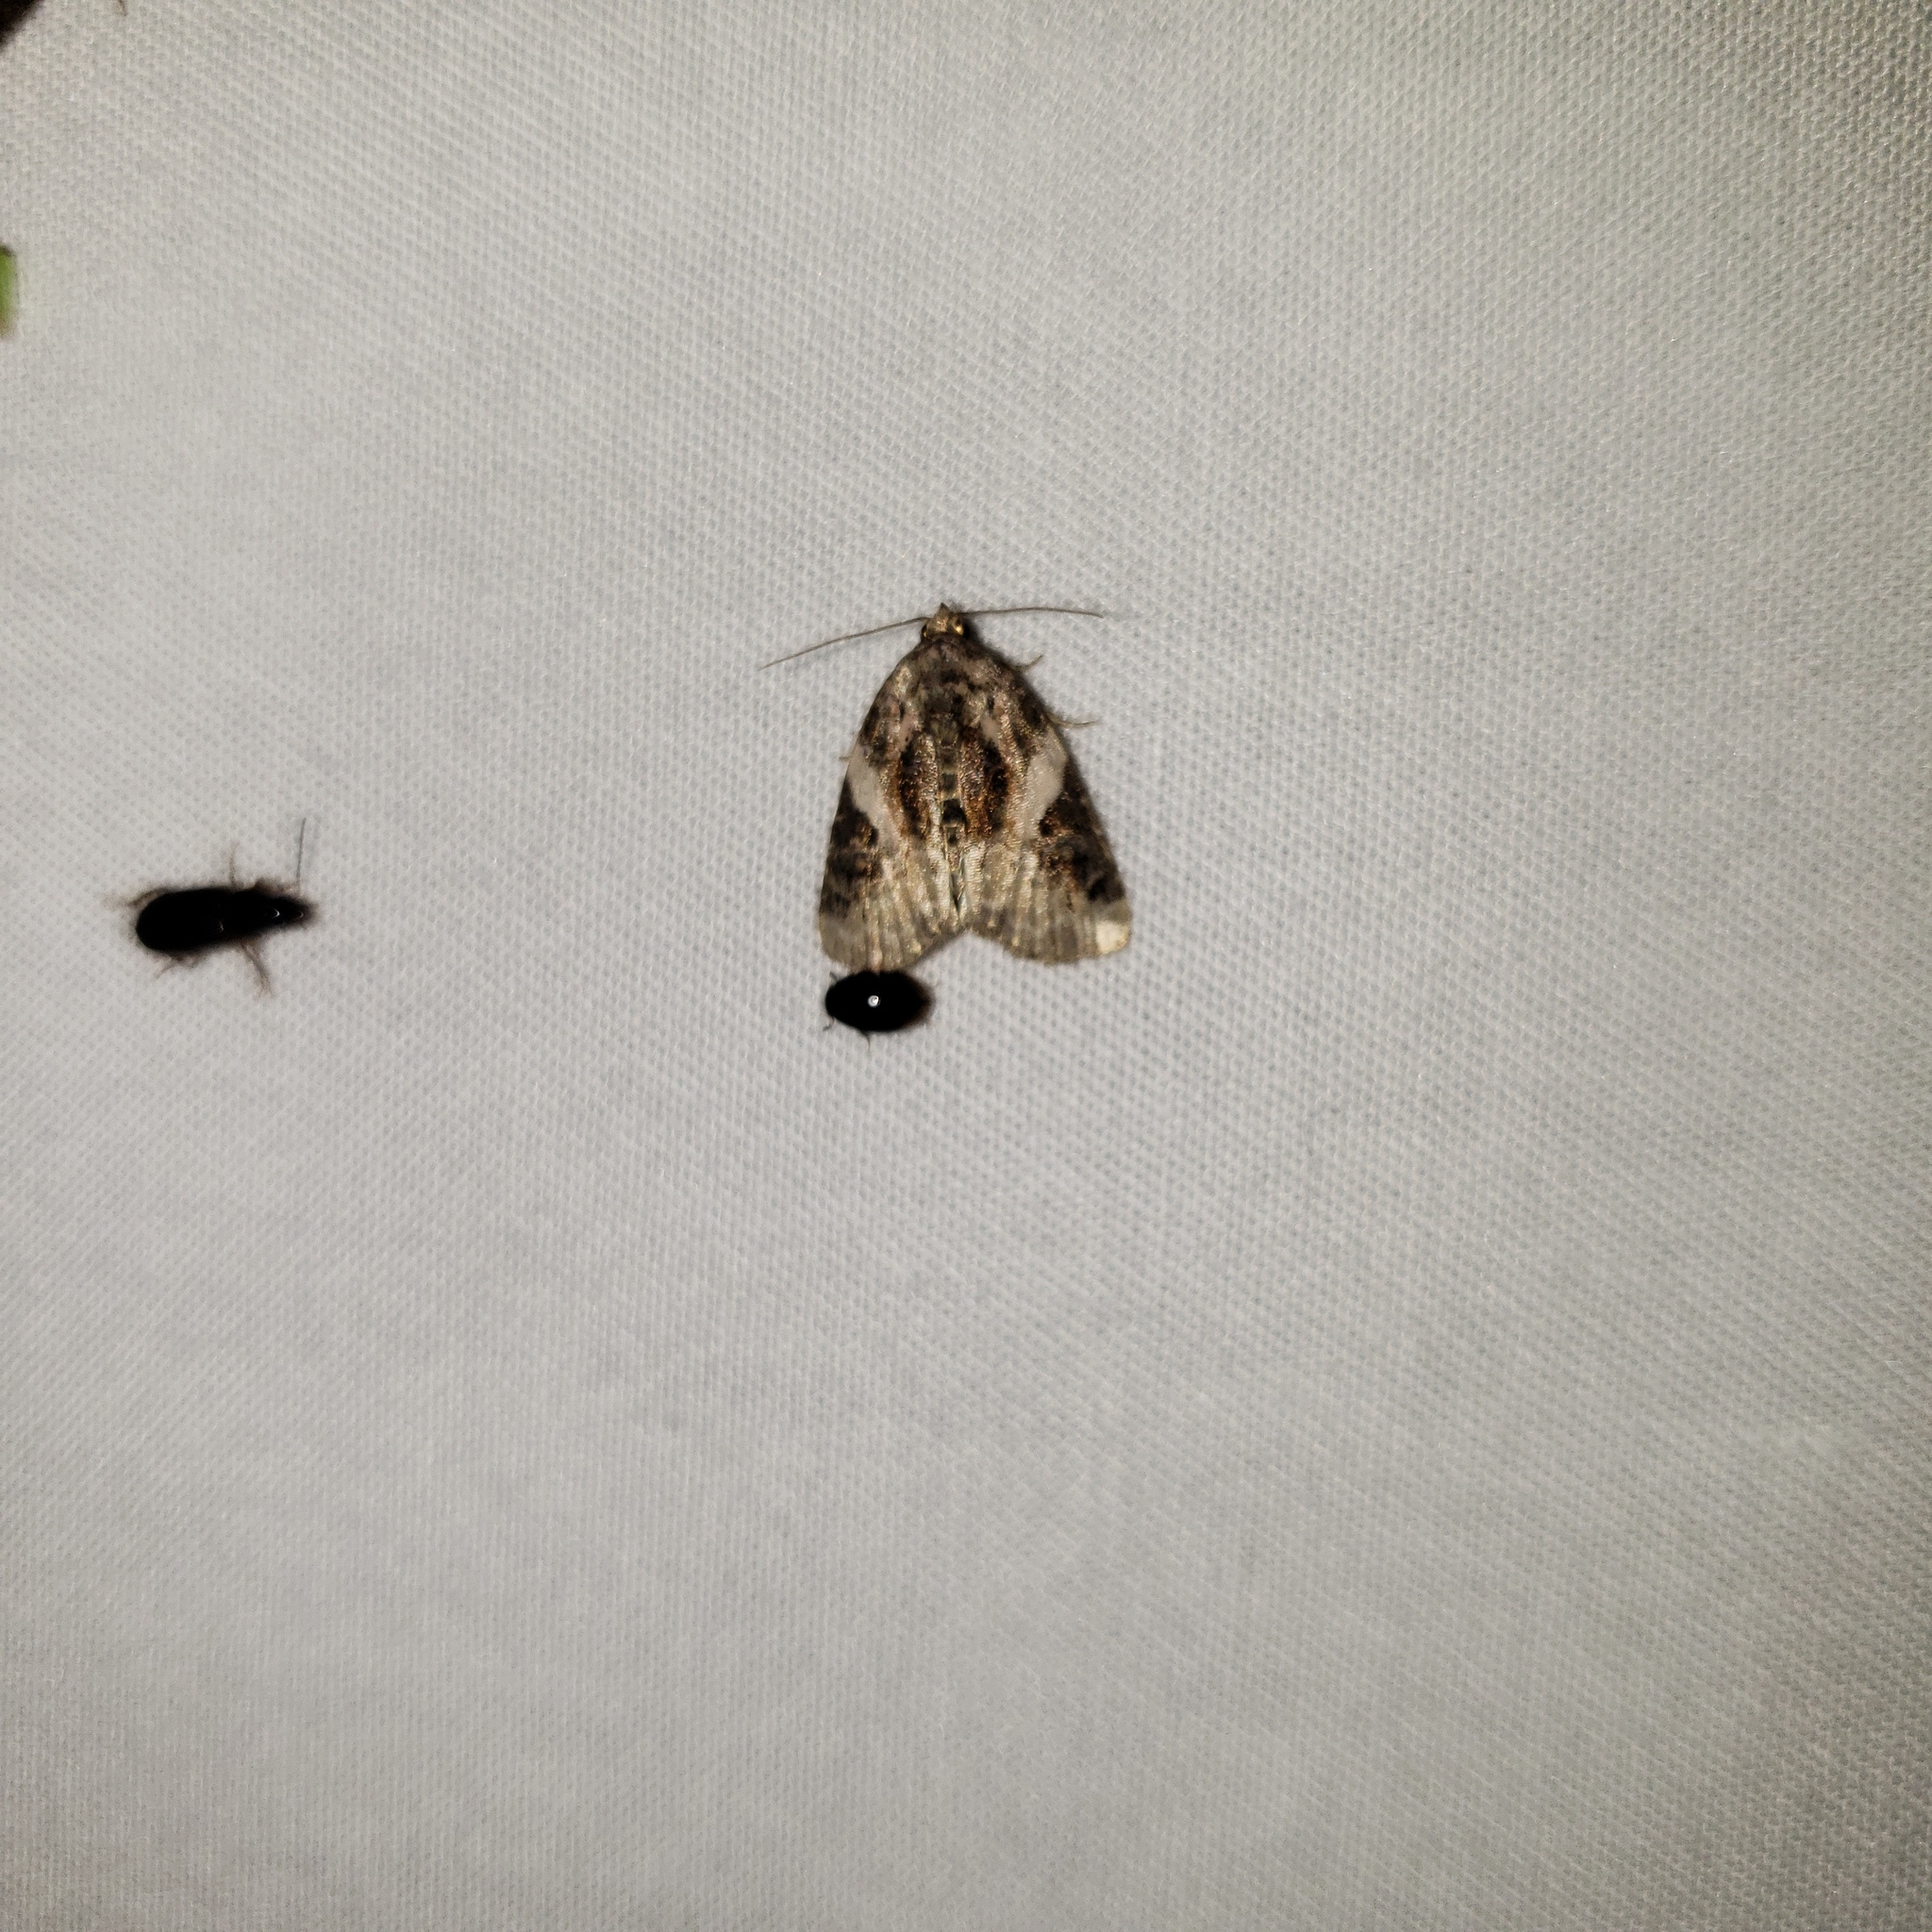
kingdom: Animalia
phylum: Arthropoda
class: Insecta
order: Lepidoptera
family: Noctuidae
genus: Pseudeustrotia
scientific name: Pseudeustrotia carneola
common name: Pink-barred lithacodia moth
